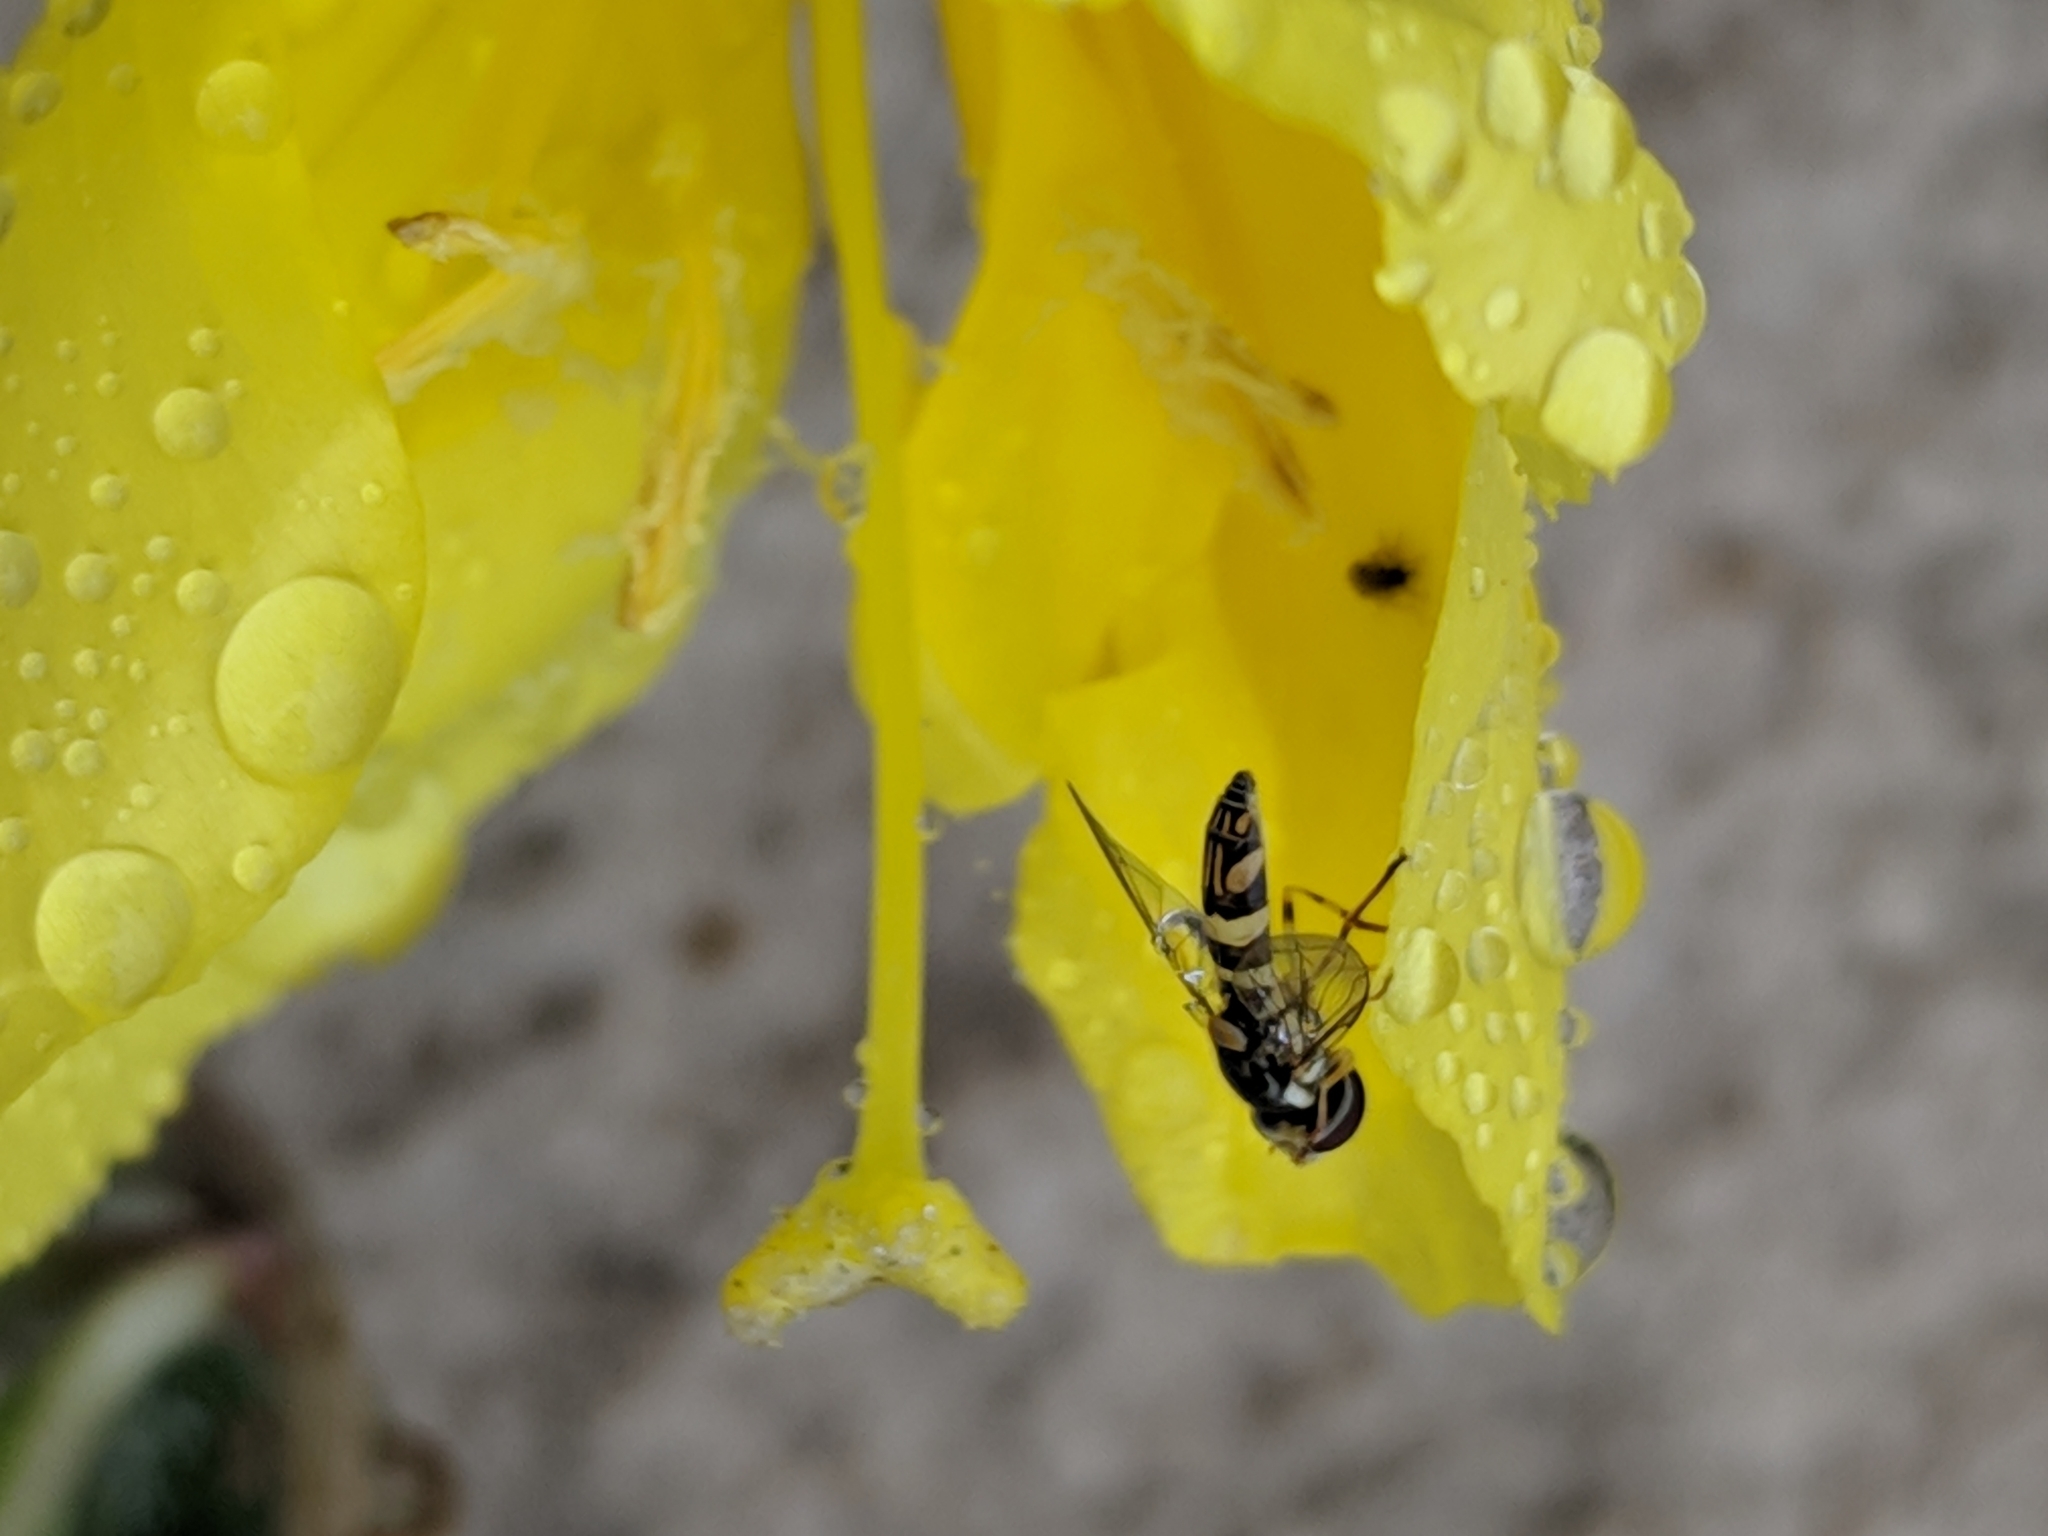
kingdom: Animalia
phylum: Arthropoda
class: Insecta
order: Diptera
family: Syrphidae
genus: Allograpta
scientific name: Allograpta exotica
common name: Syrphid fly
